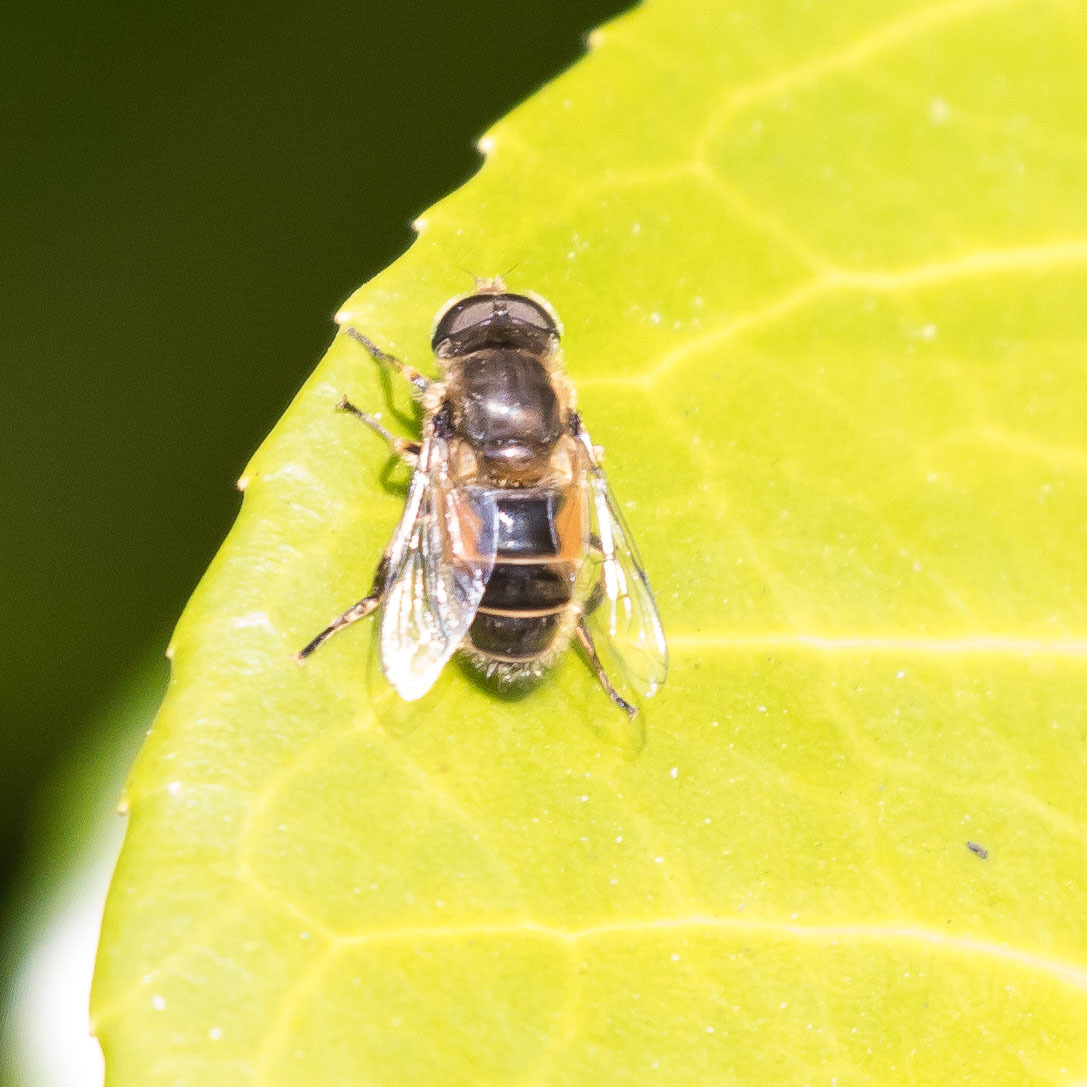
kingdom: Animalia
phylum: Arthropoda
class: Insecta
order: Diptera
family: Syrphidae
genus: Eristalis
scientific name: Eristalis
